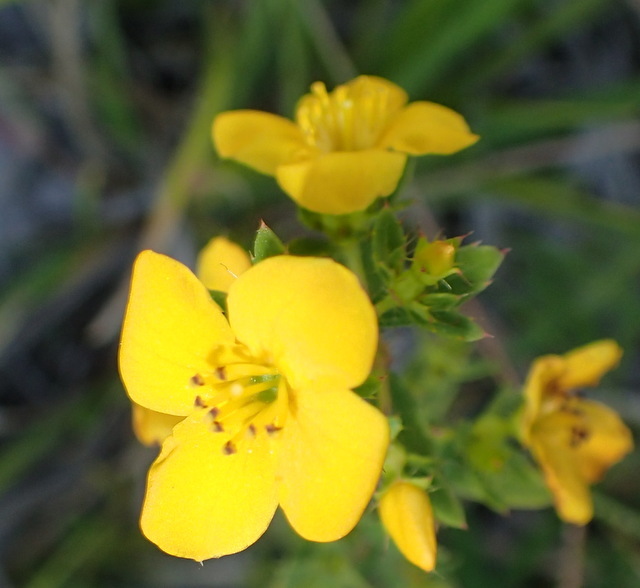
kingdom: Plantae
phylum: Tracheophyta
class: Magnoliopsida
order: Myrtales
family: Melastomataceae
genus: Rhexia
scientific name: Rhexia lutea
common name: Golden meadow-beauty
